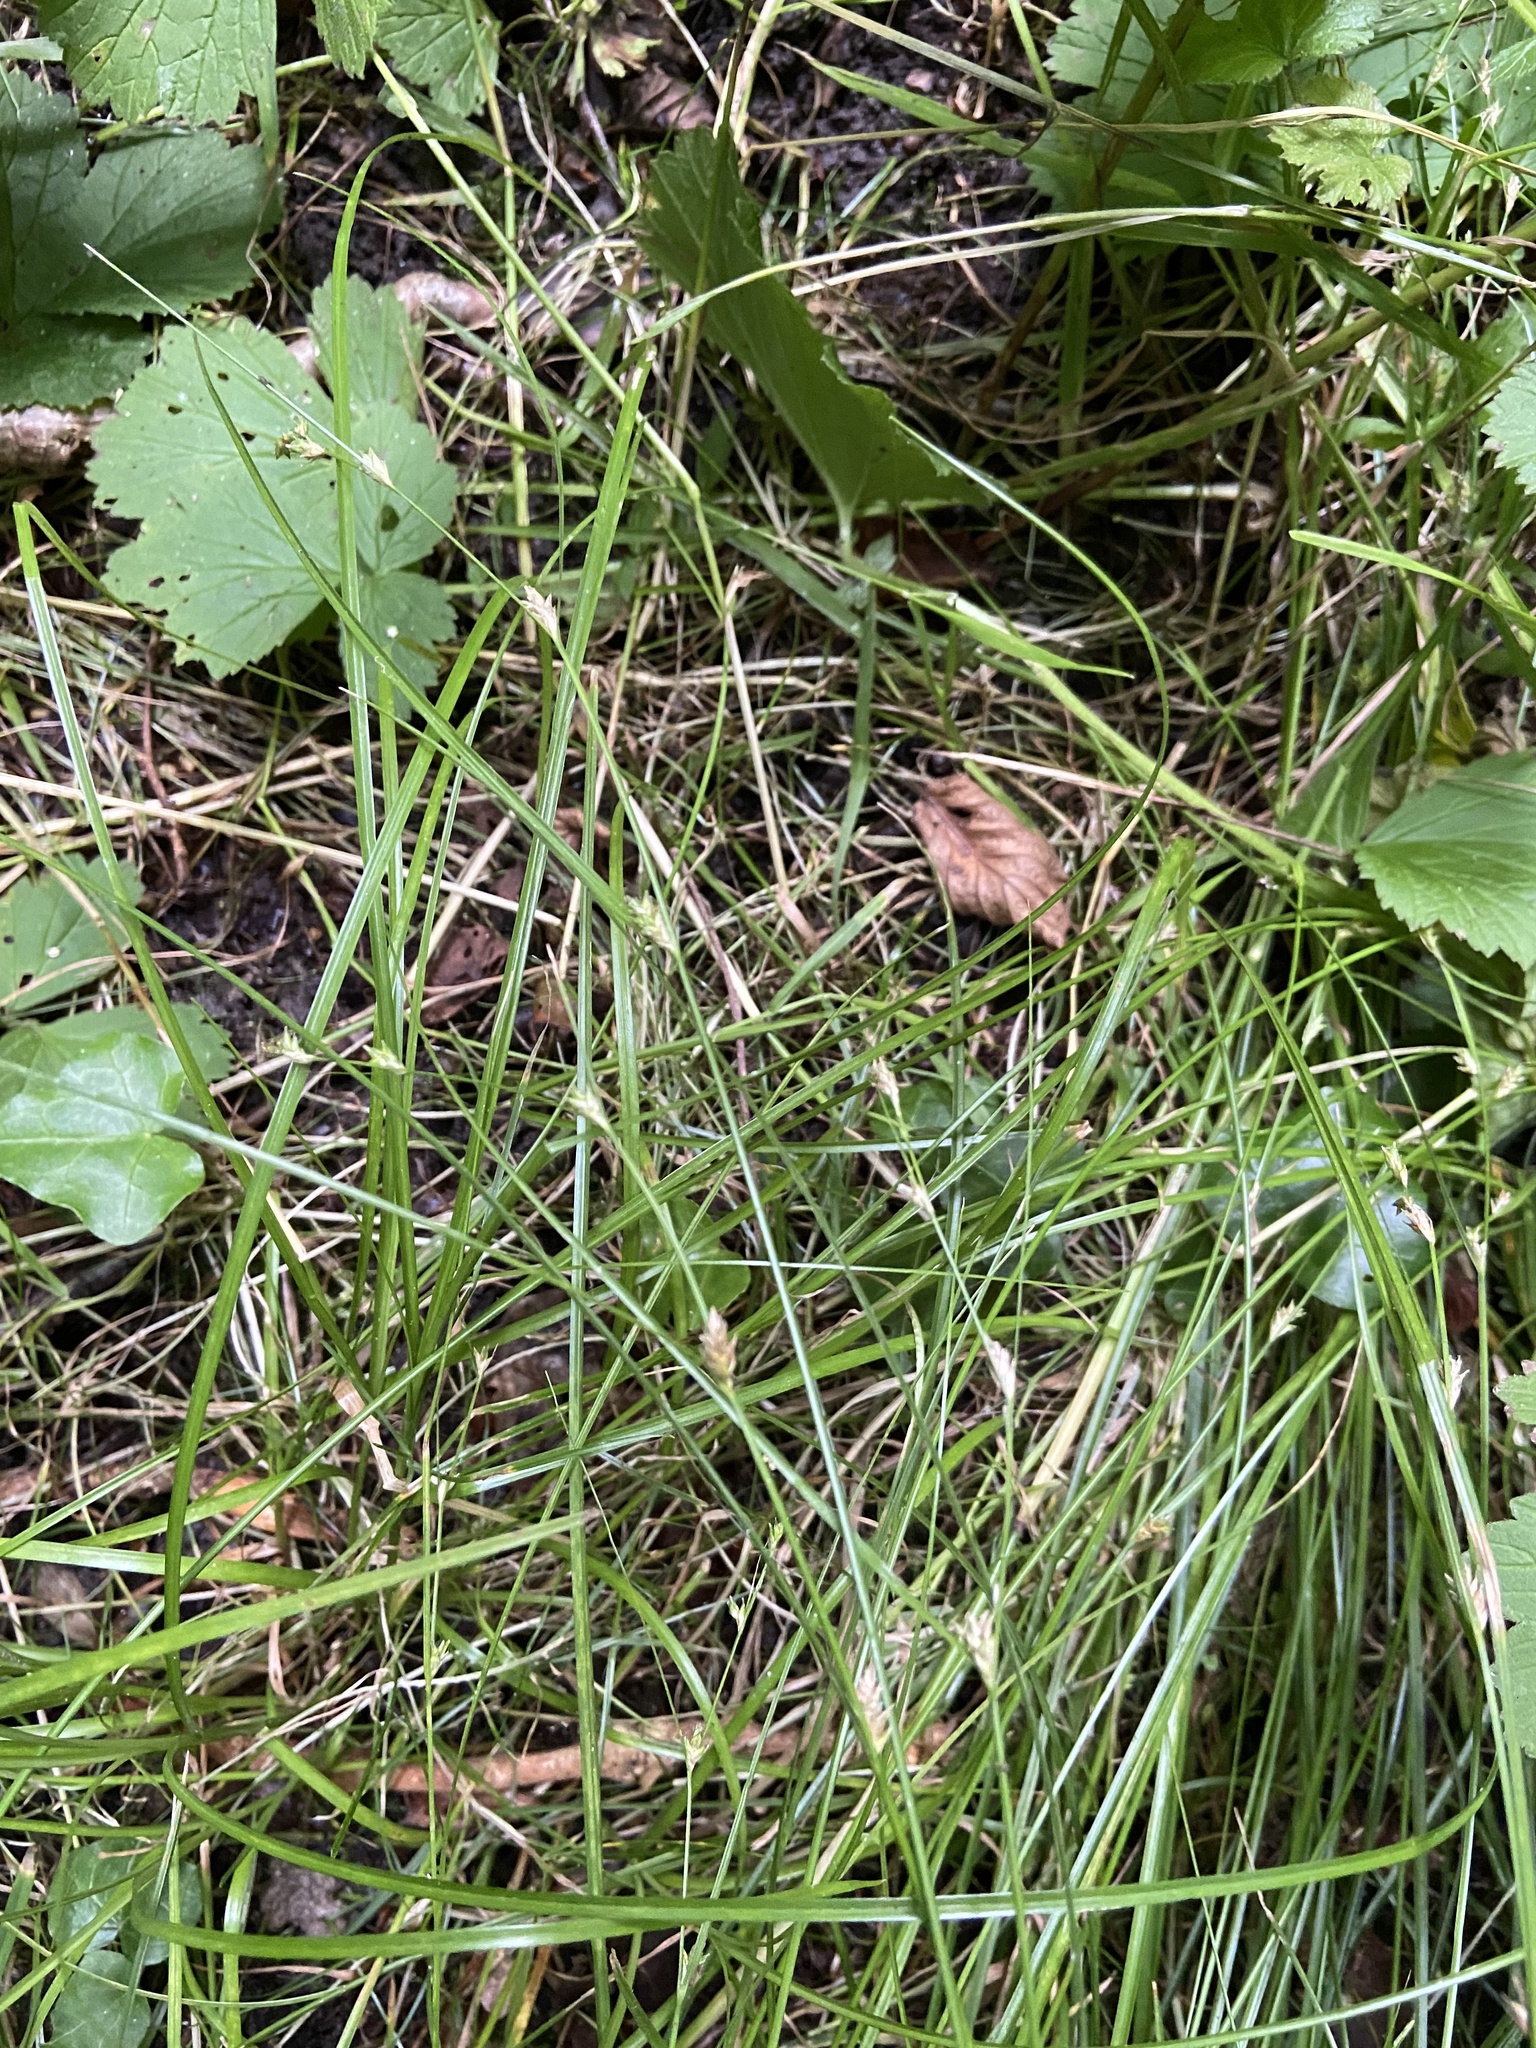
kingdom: Plantae
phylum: Tracheophyta
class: Liliopsida
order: Poales
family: Cyperaceae
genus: Carex
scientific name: Carex remota
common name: Remote sedge
